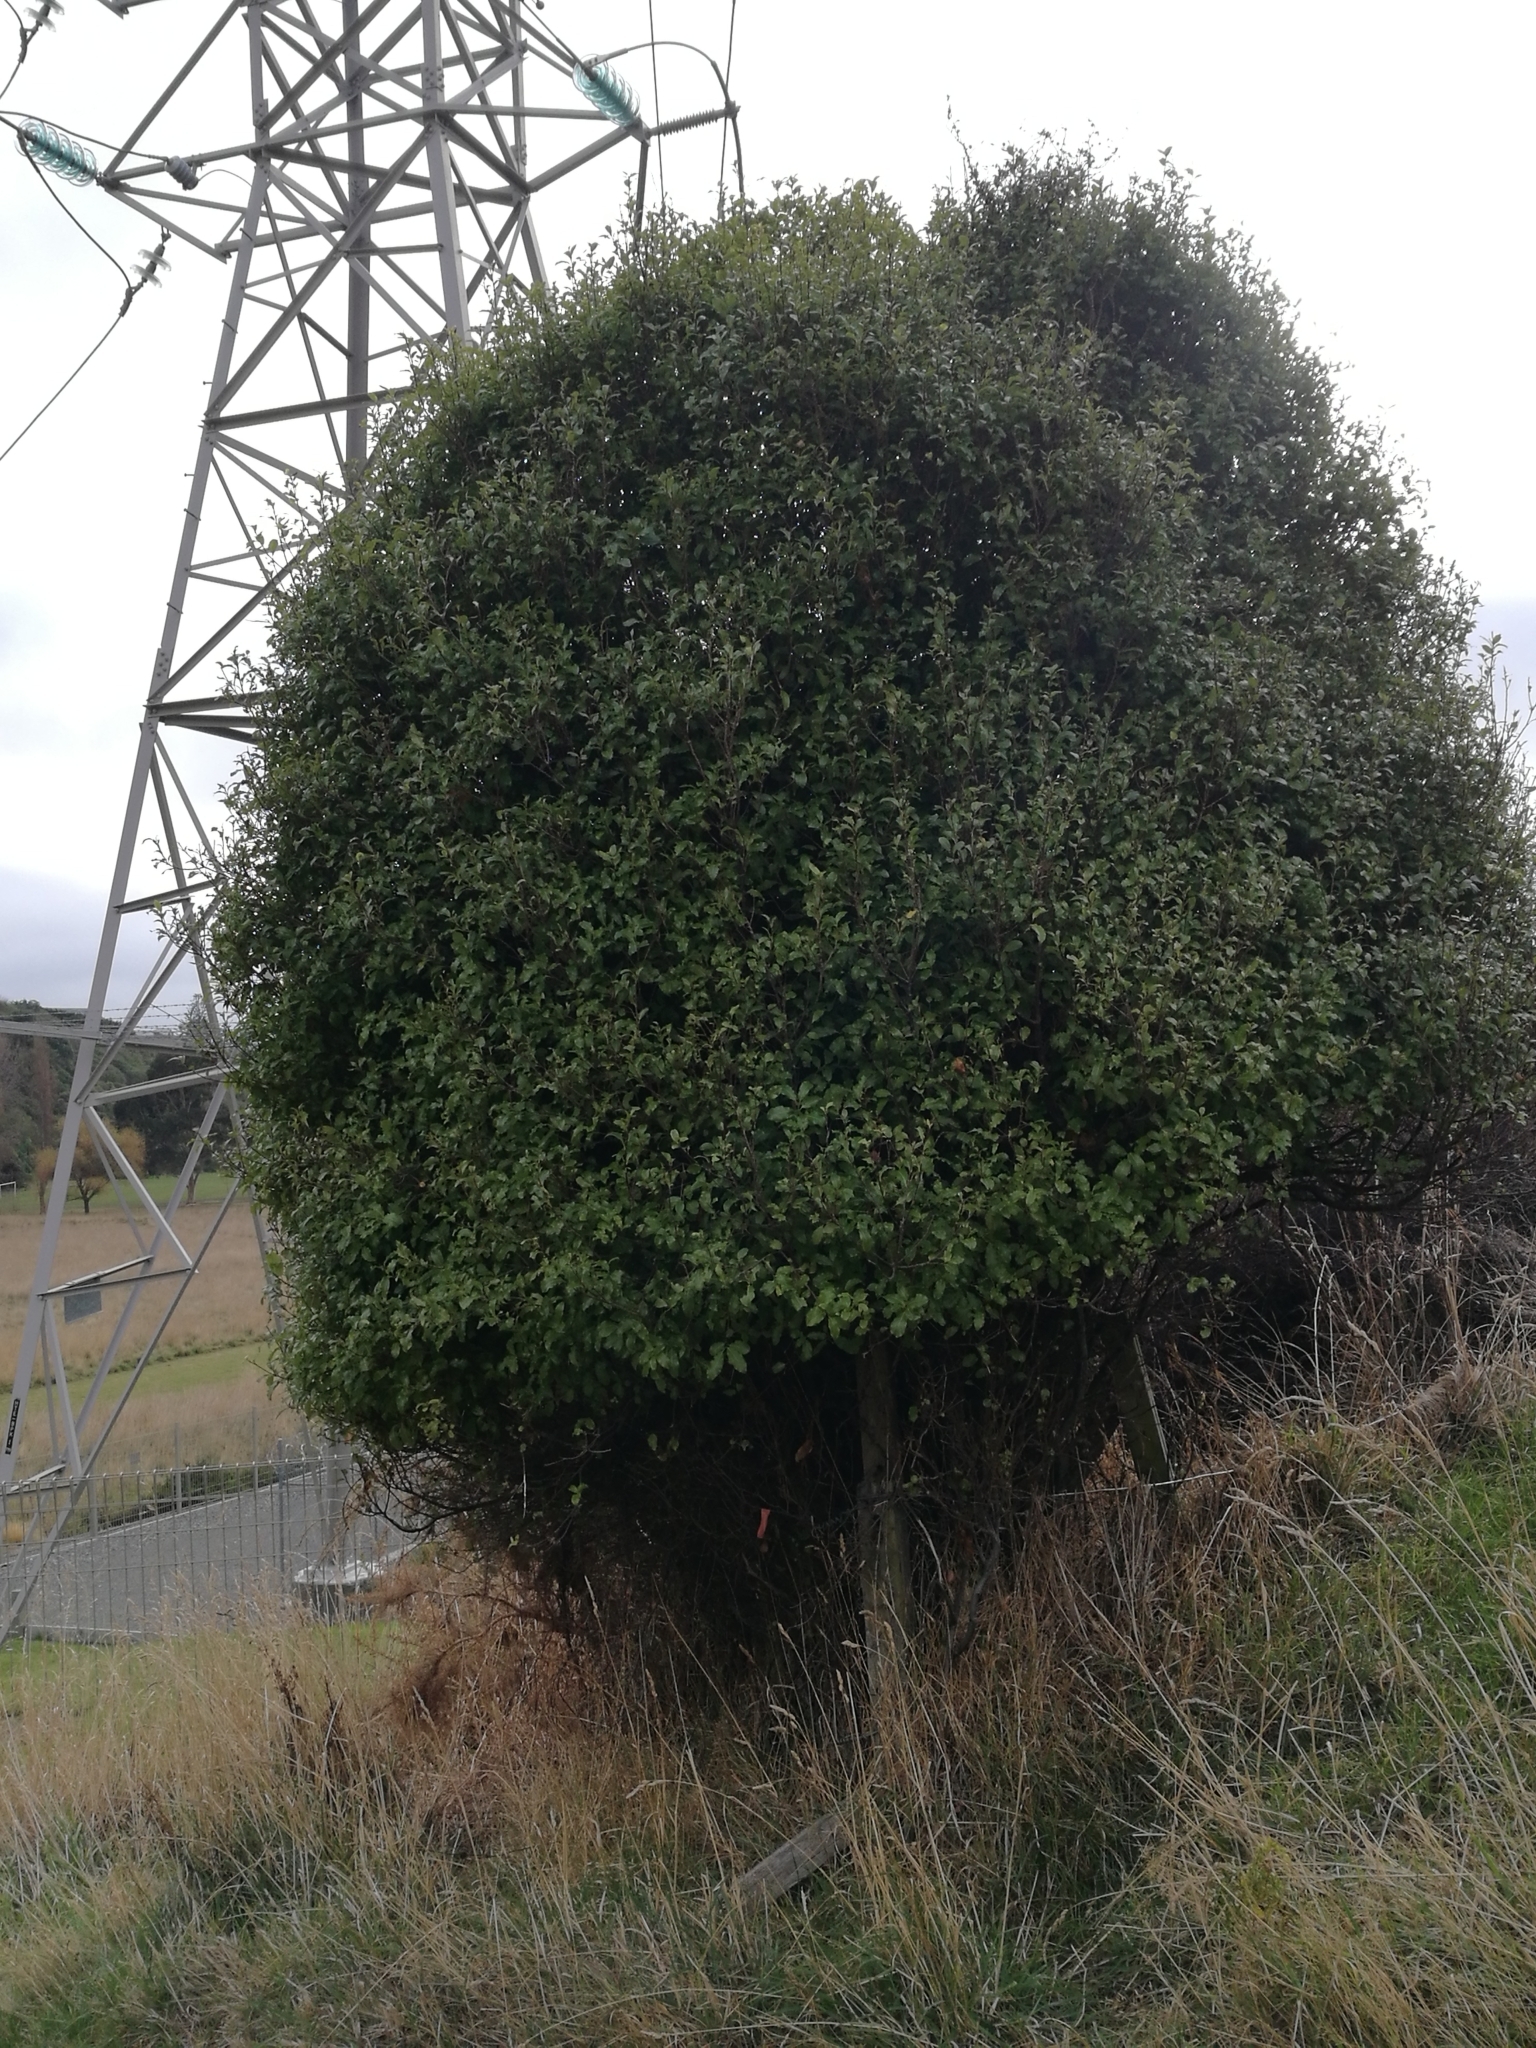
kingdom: Plantae
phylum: Tracheophyta
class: Magnoliopsida
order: Apiales
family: Pittosporaceae
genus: Pittosporum
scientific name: Pittosporum tenuifolium
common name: Kohuhu
